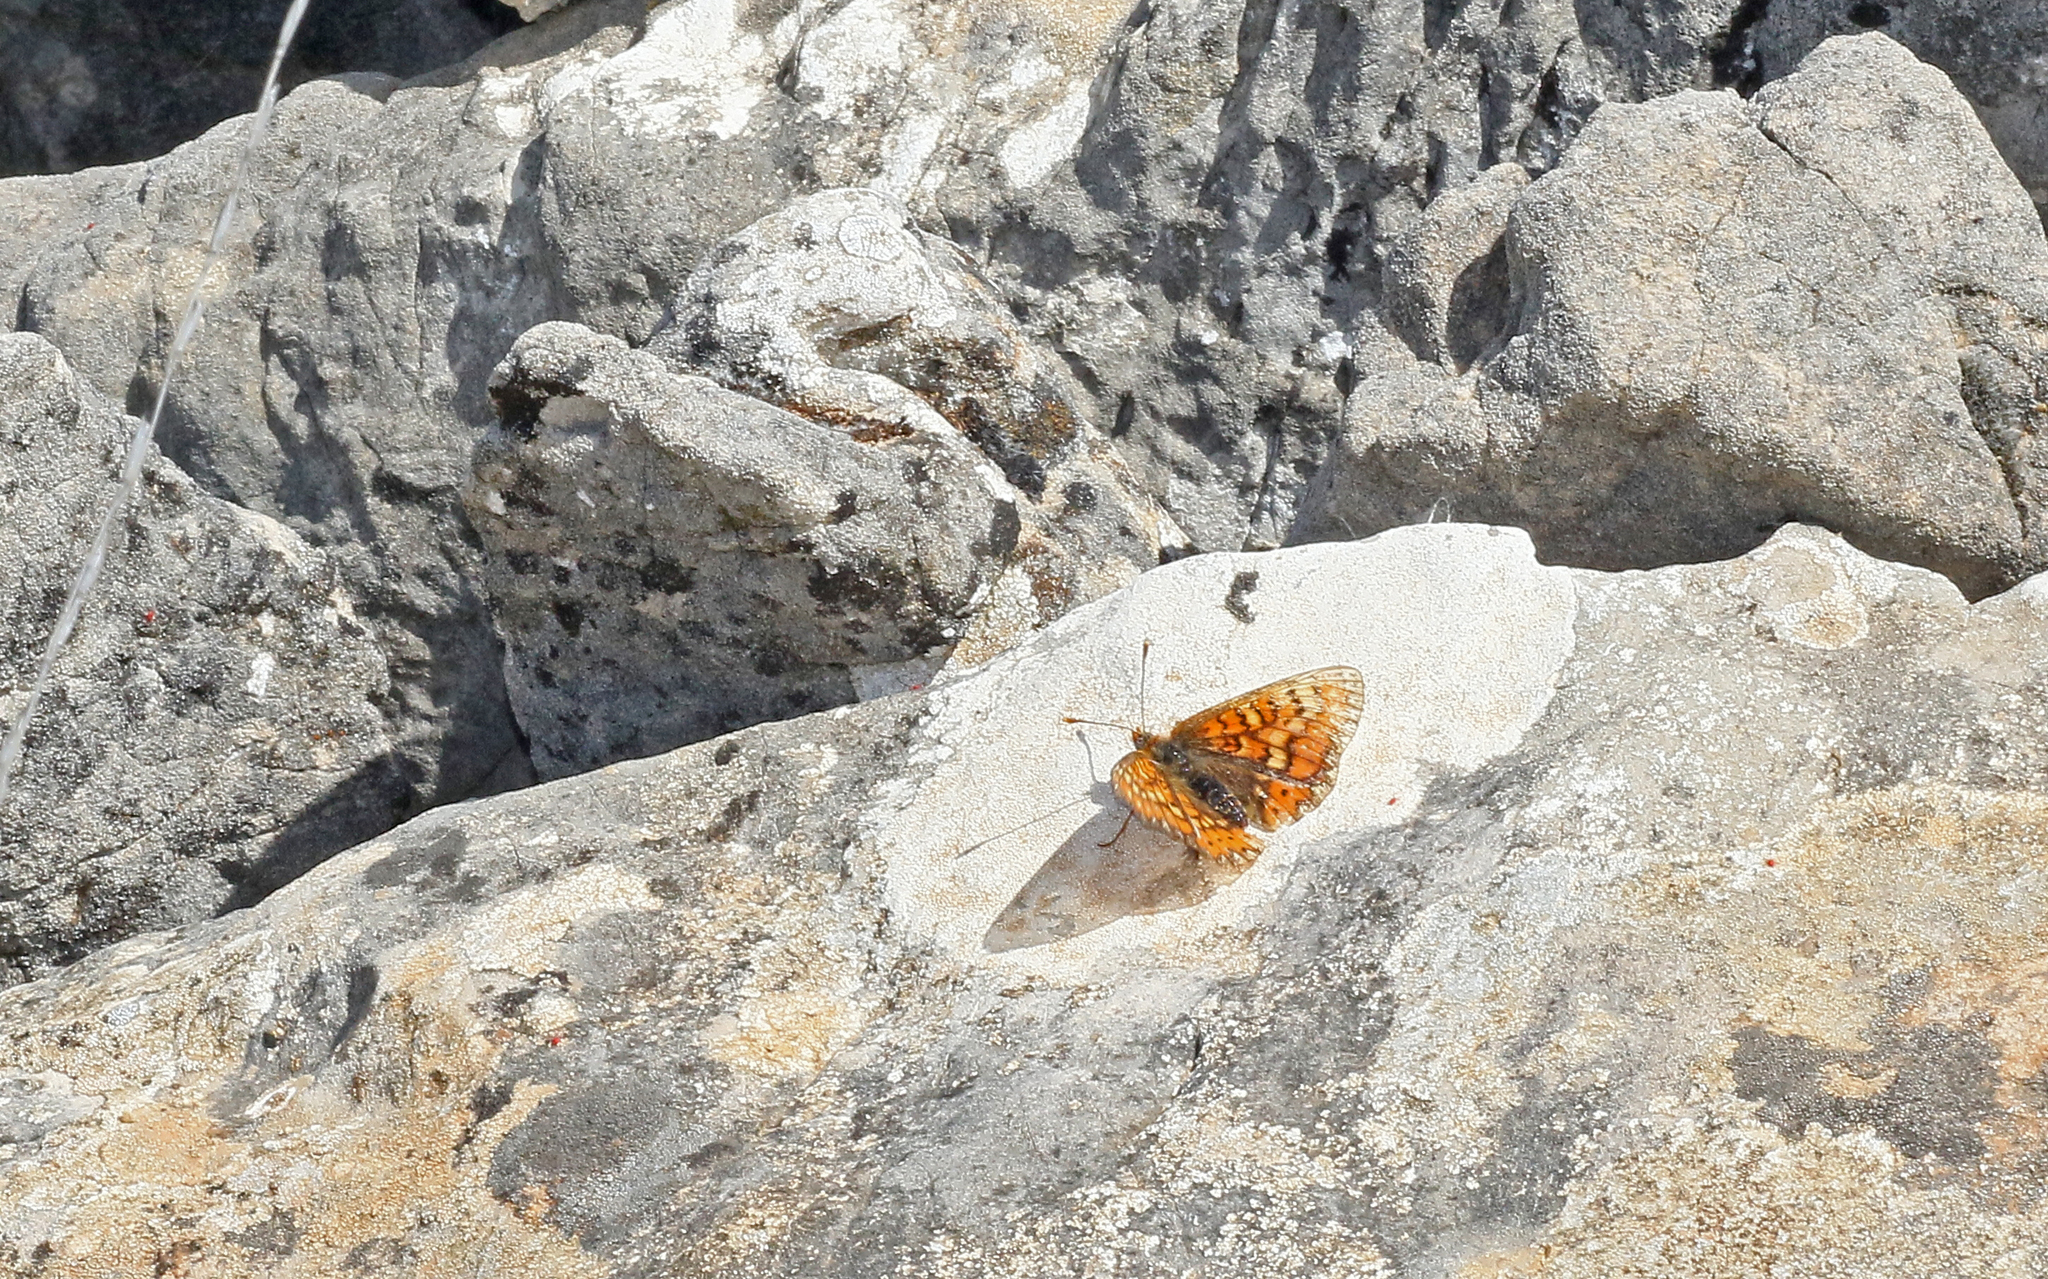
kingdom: Animalia
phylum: Arthropoda
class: Insecta
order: Lepidoptera
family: Nymphalidae
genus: Euphydryas
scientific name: Euphydryas aurinia
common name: Marsh fritillary
